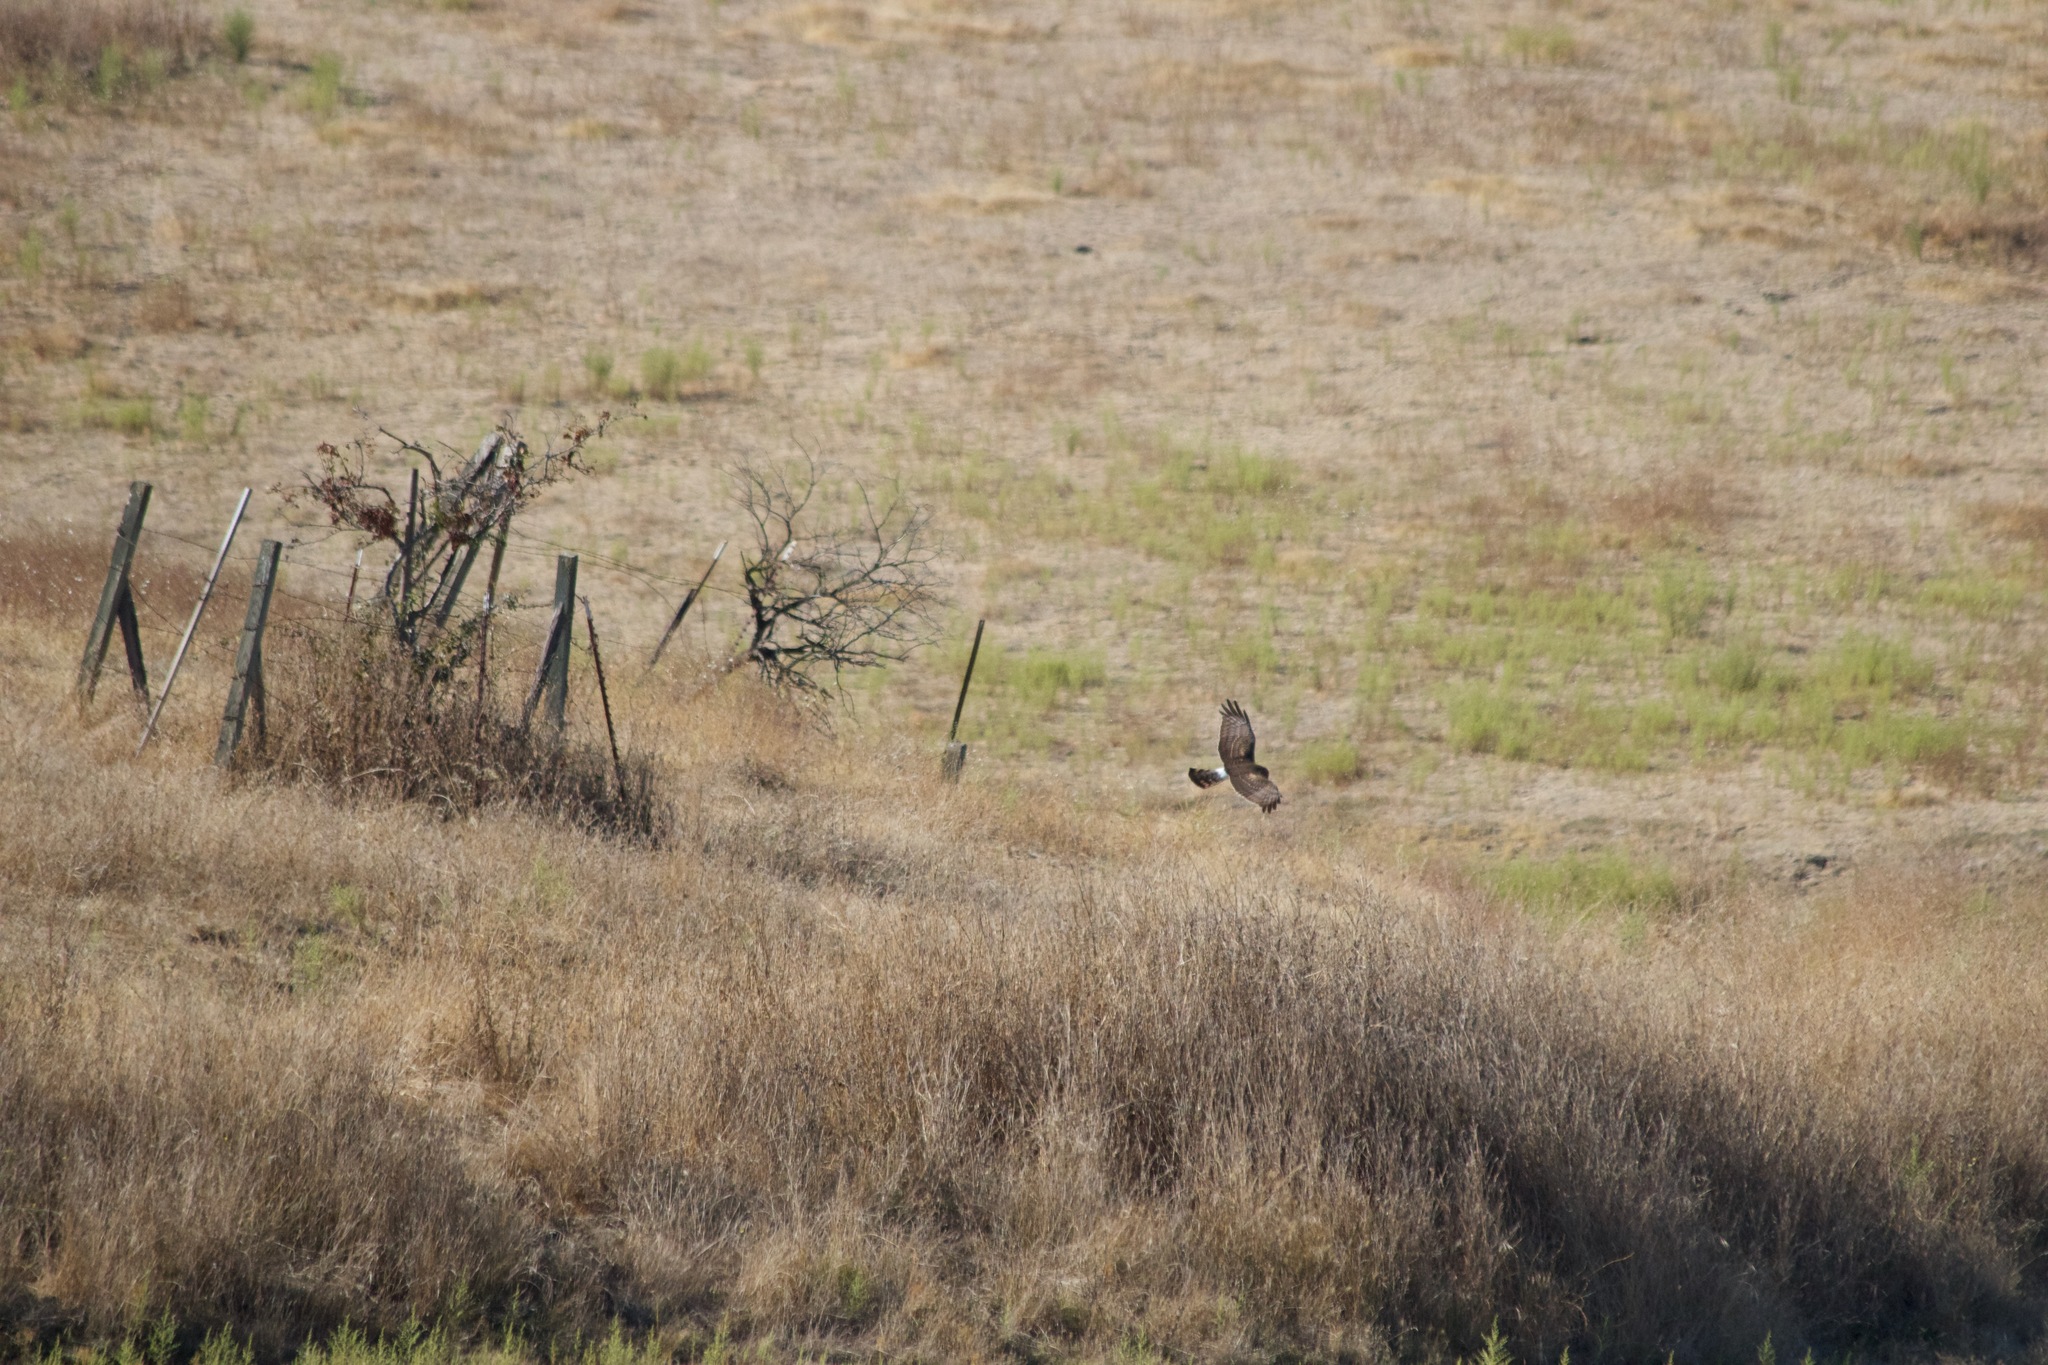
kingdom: Animalia
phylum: Chordata
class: Aves
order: Accipitriformes
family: Accipitridae
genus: Circus
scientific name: Circus cyaneus
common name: Hen harrier
